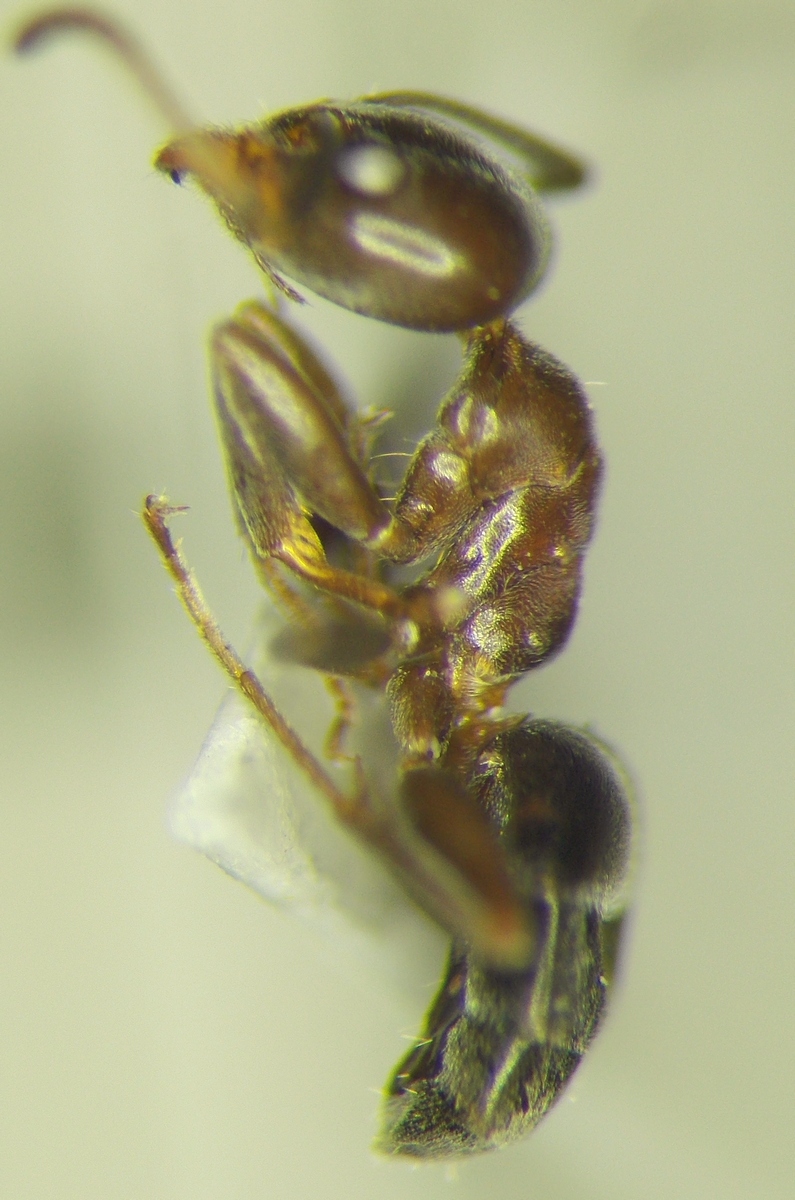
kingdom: Animalia
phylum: Arthropoda
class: Insecta
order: Hymenoptera
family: Formicidae
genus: Liometopum
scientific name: Liometopum luctuosum
